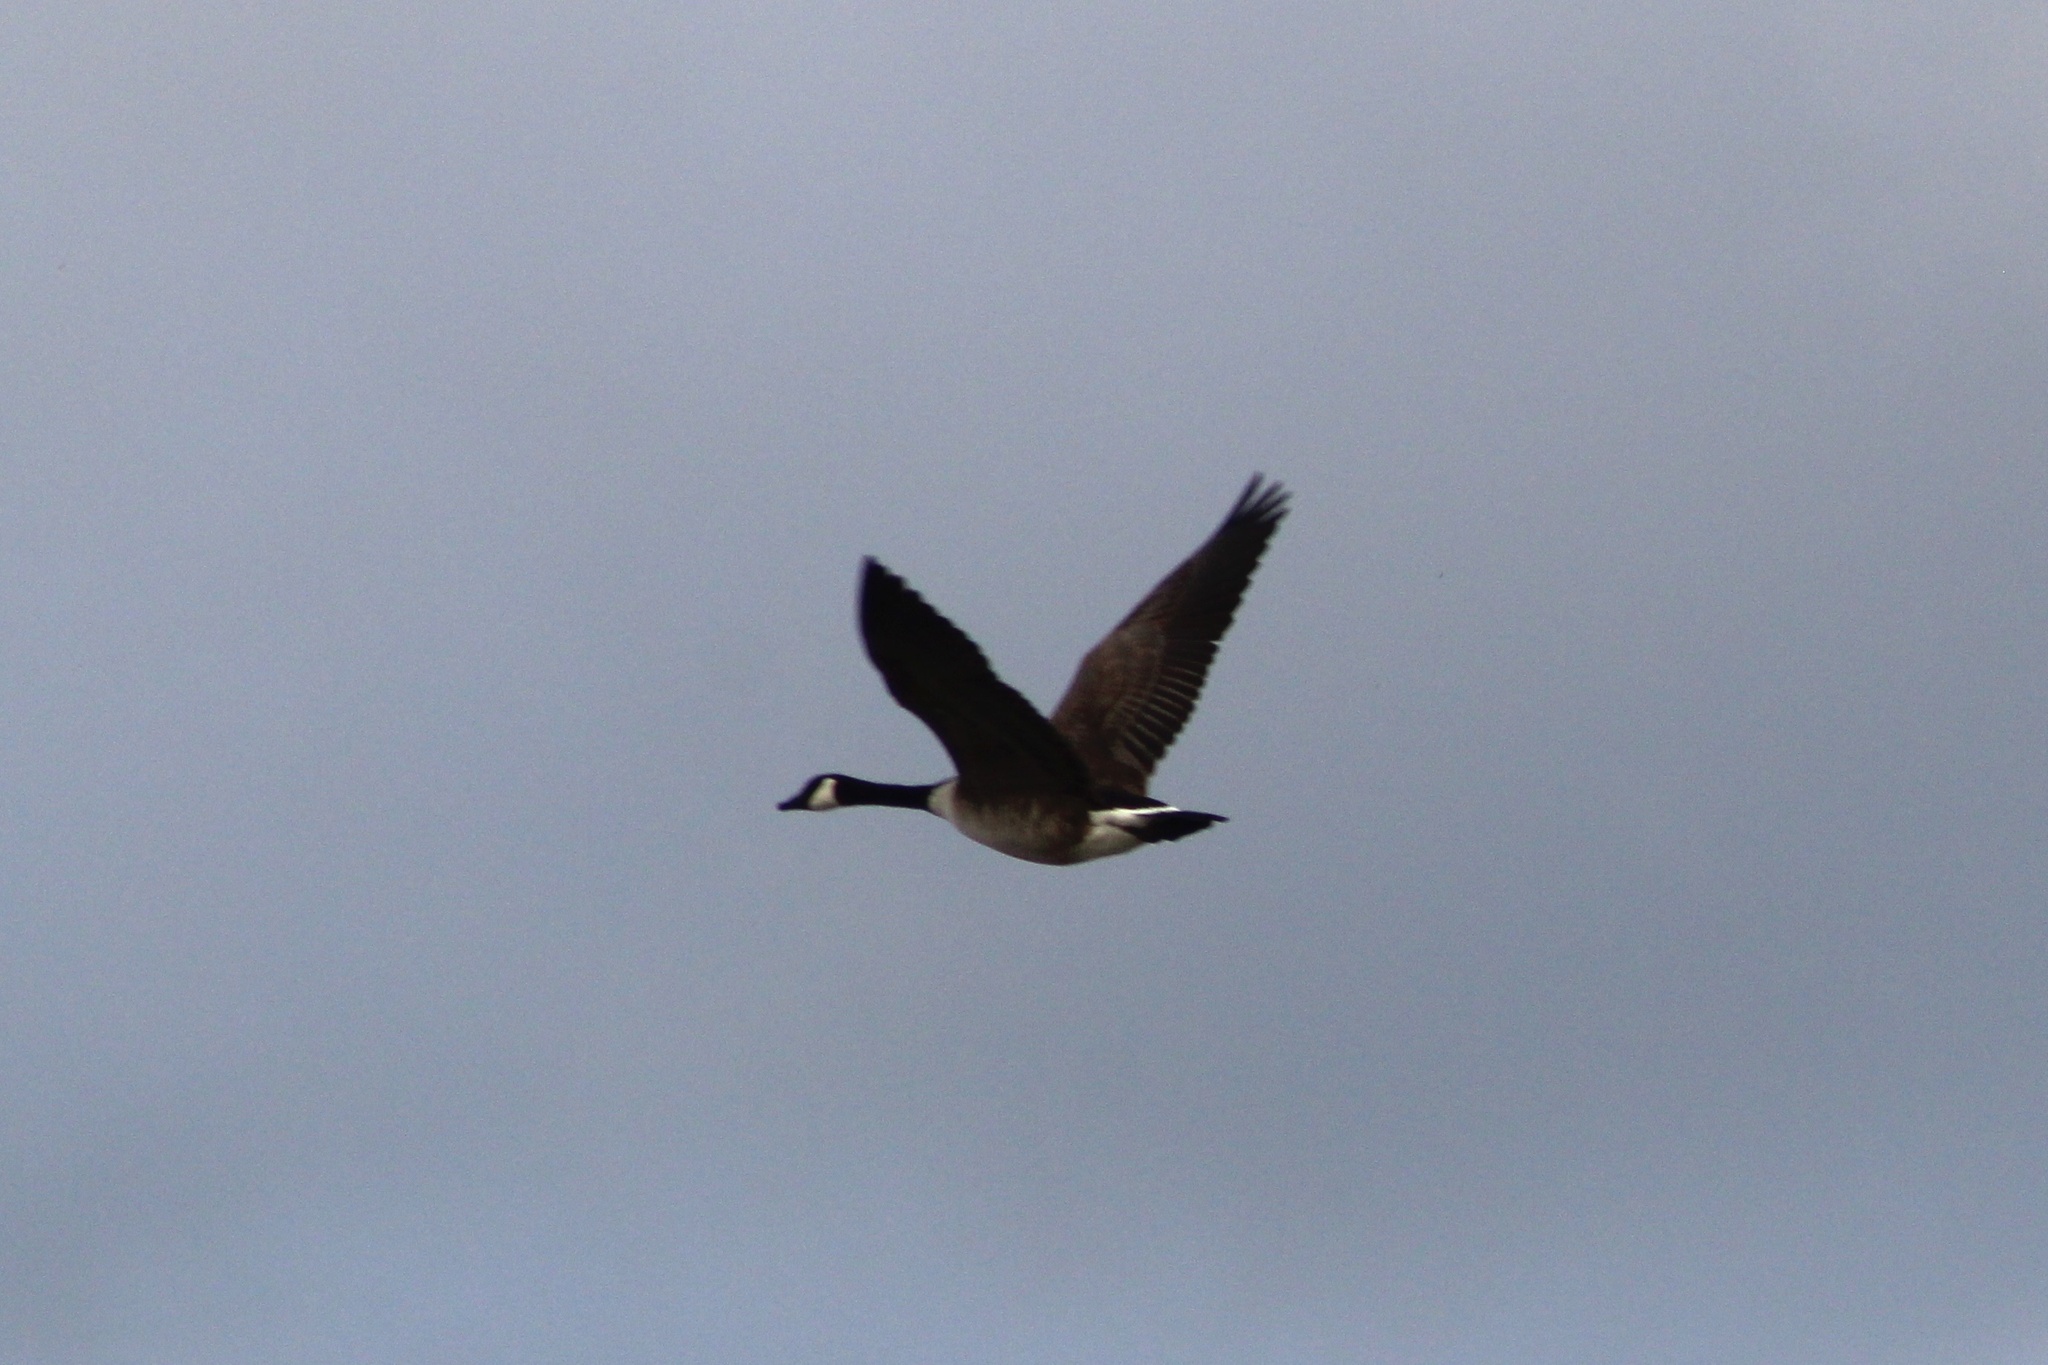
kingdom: Animalia
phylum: Chordata
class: Aves
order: Anseriformes
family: Anatidae
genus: Branta
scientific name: Branta canadensis
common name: Canada goose
